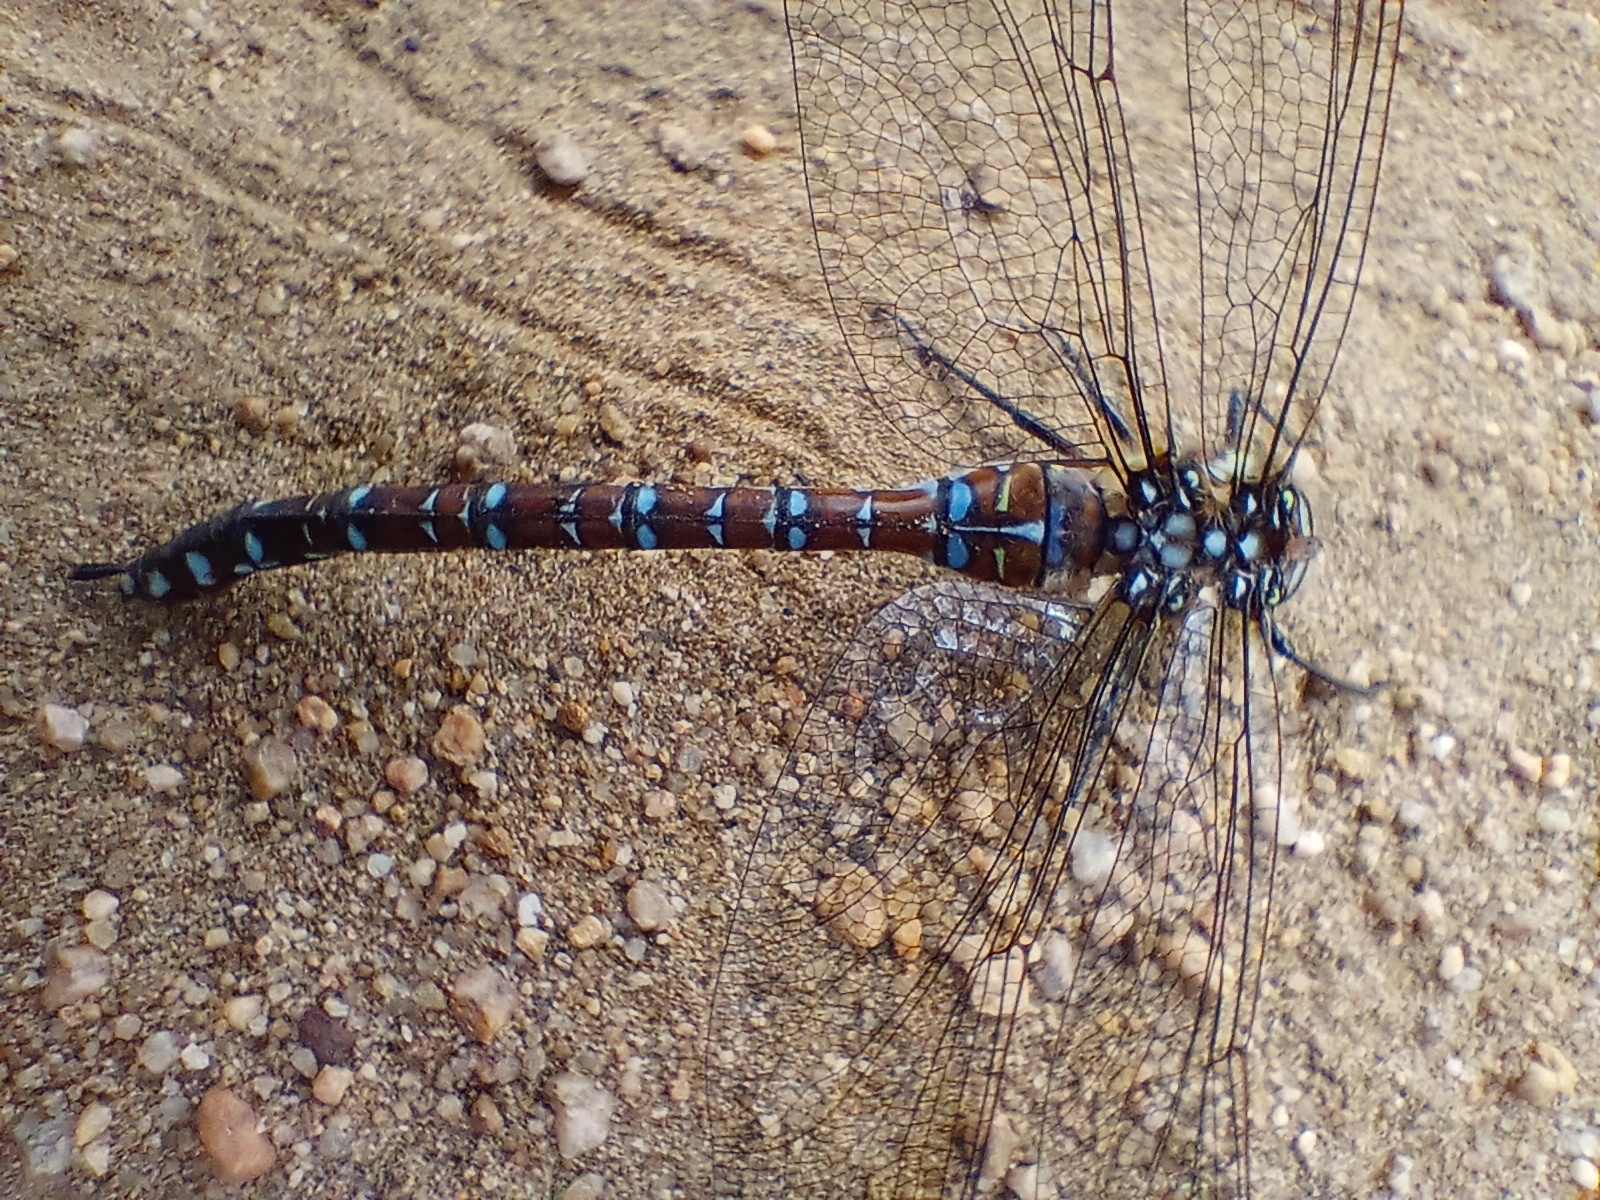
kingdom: Animalia
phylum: Arthropoda
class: Insecta
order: Odonata
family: Aeshnidae
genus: Aeshna
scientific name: Aeshna juncea
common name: Moorland hawker
